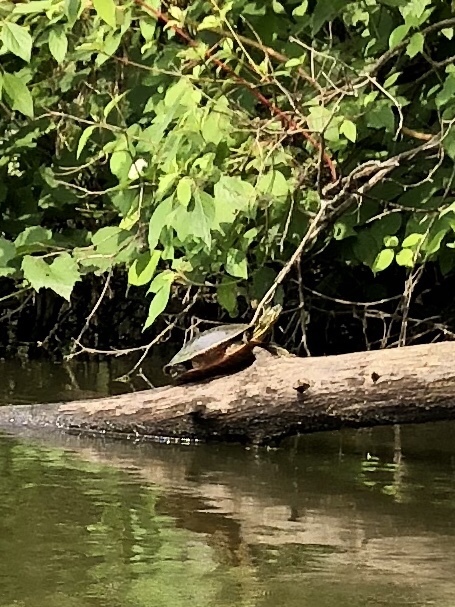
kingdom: Animalia
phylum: Chordata
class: Testudines
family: Emydidae
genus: Chrysemys
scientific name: Chrysemys picta
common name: Painted turtle
